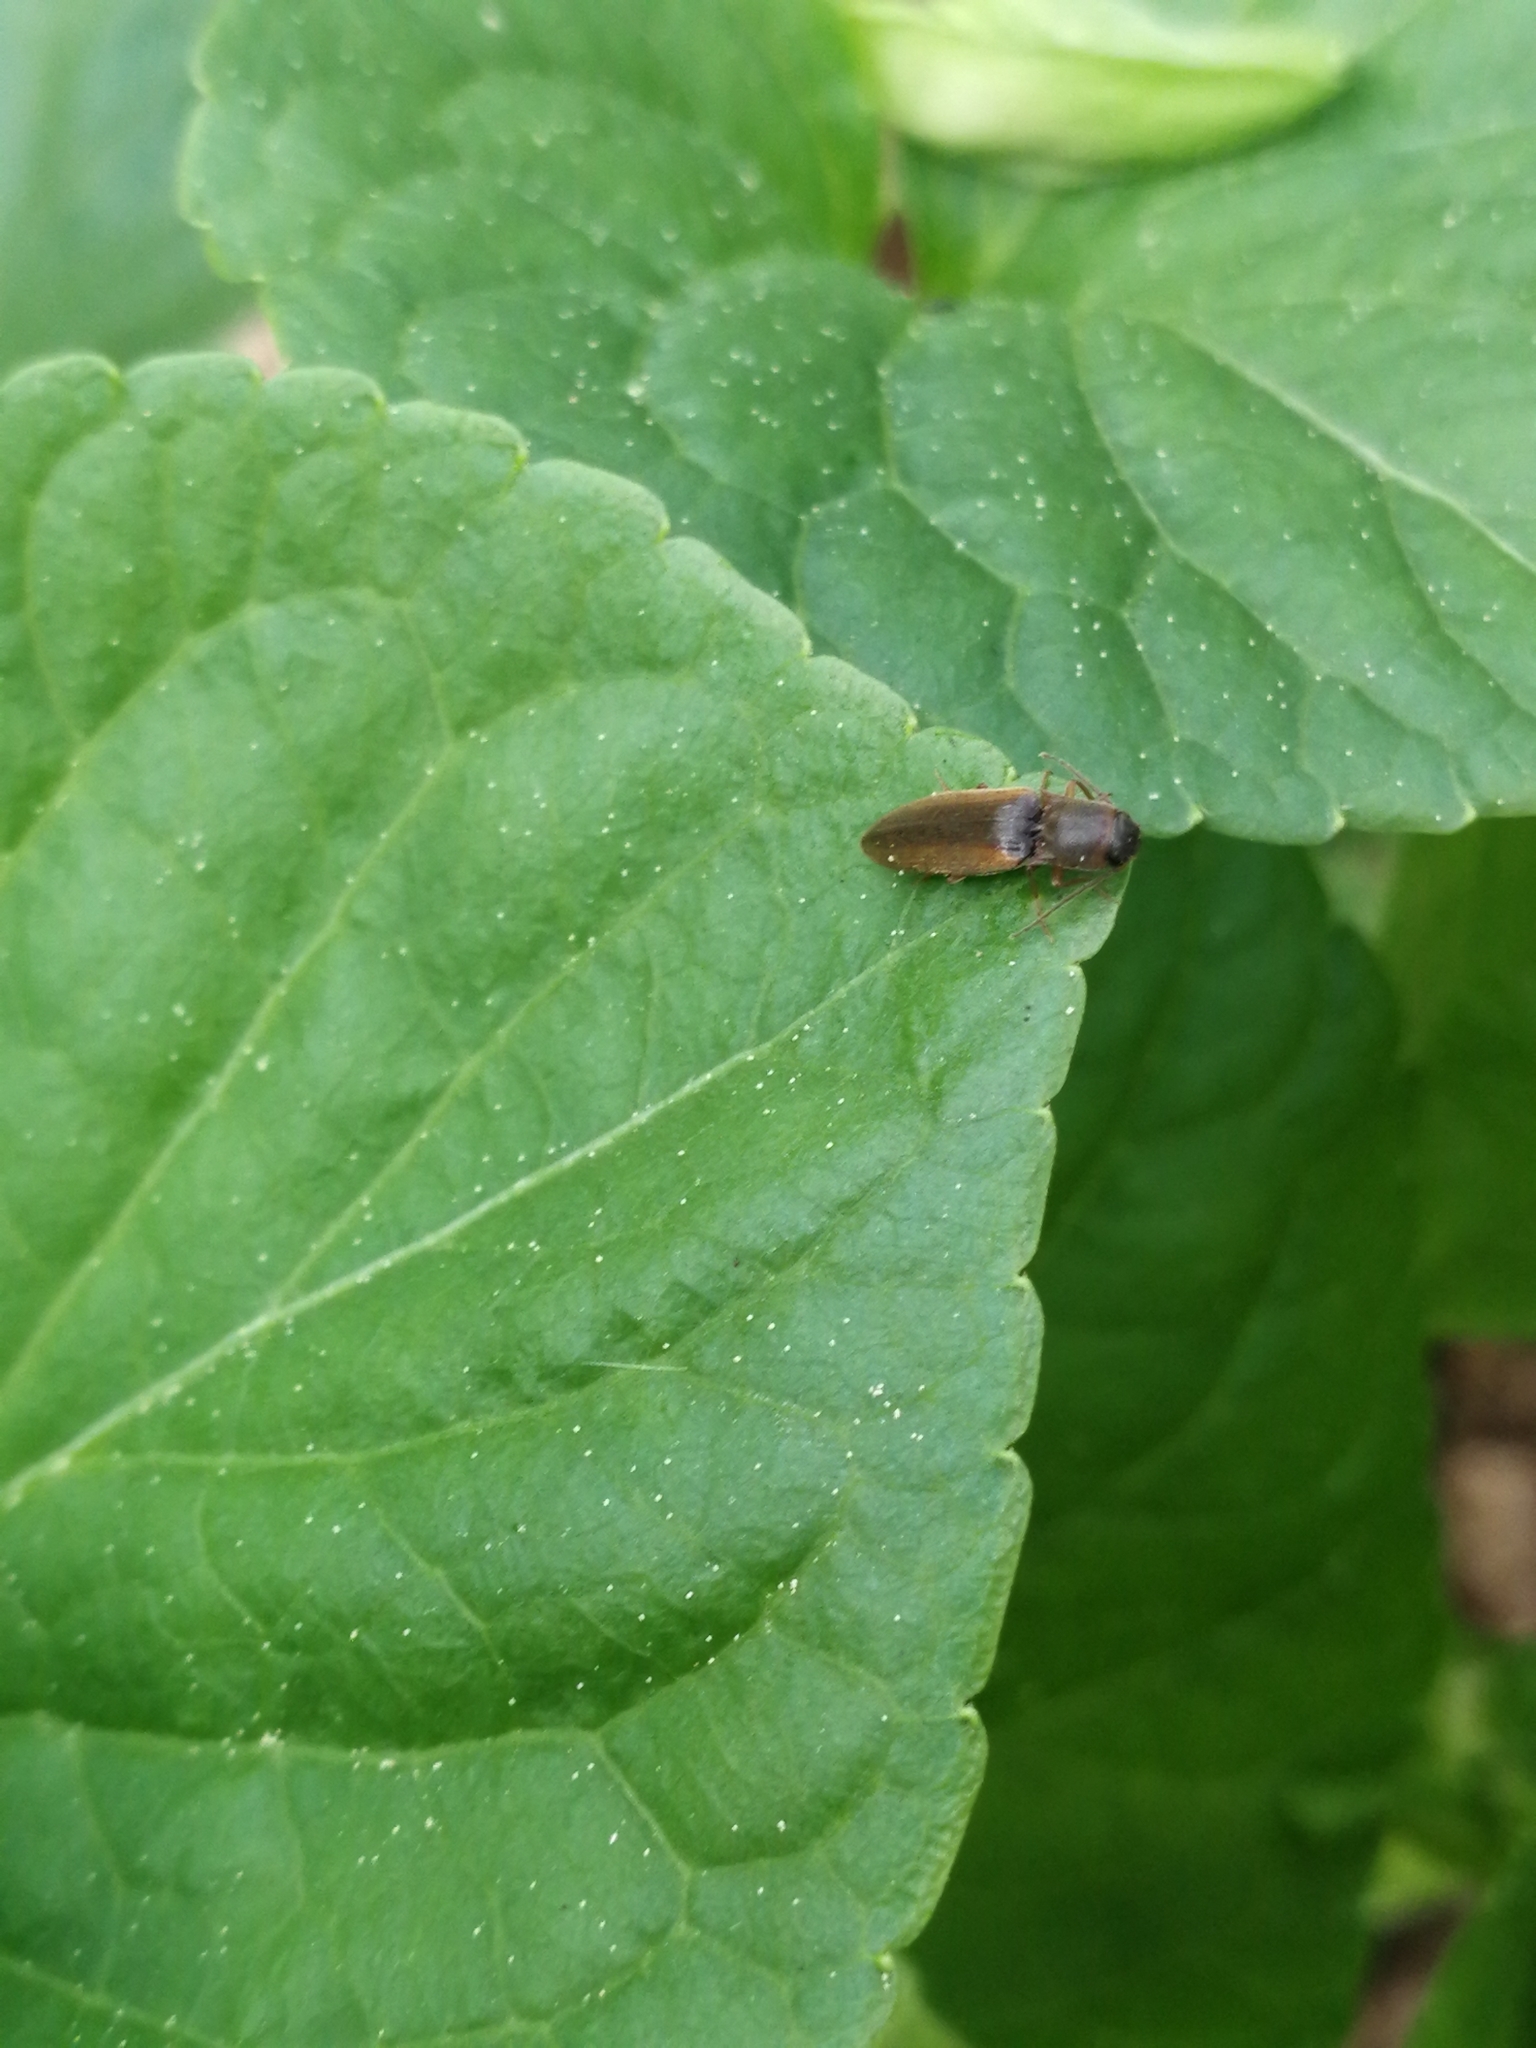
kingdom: Animalia
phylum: Arthropoda
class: Insecta
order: Coleoptera
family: Elateridae
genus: Dalopius
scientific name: Dalopius marginatus
